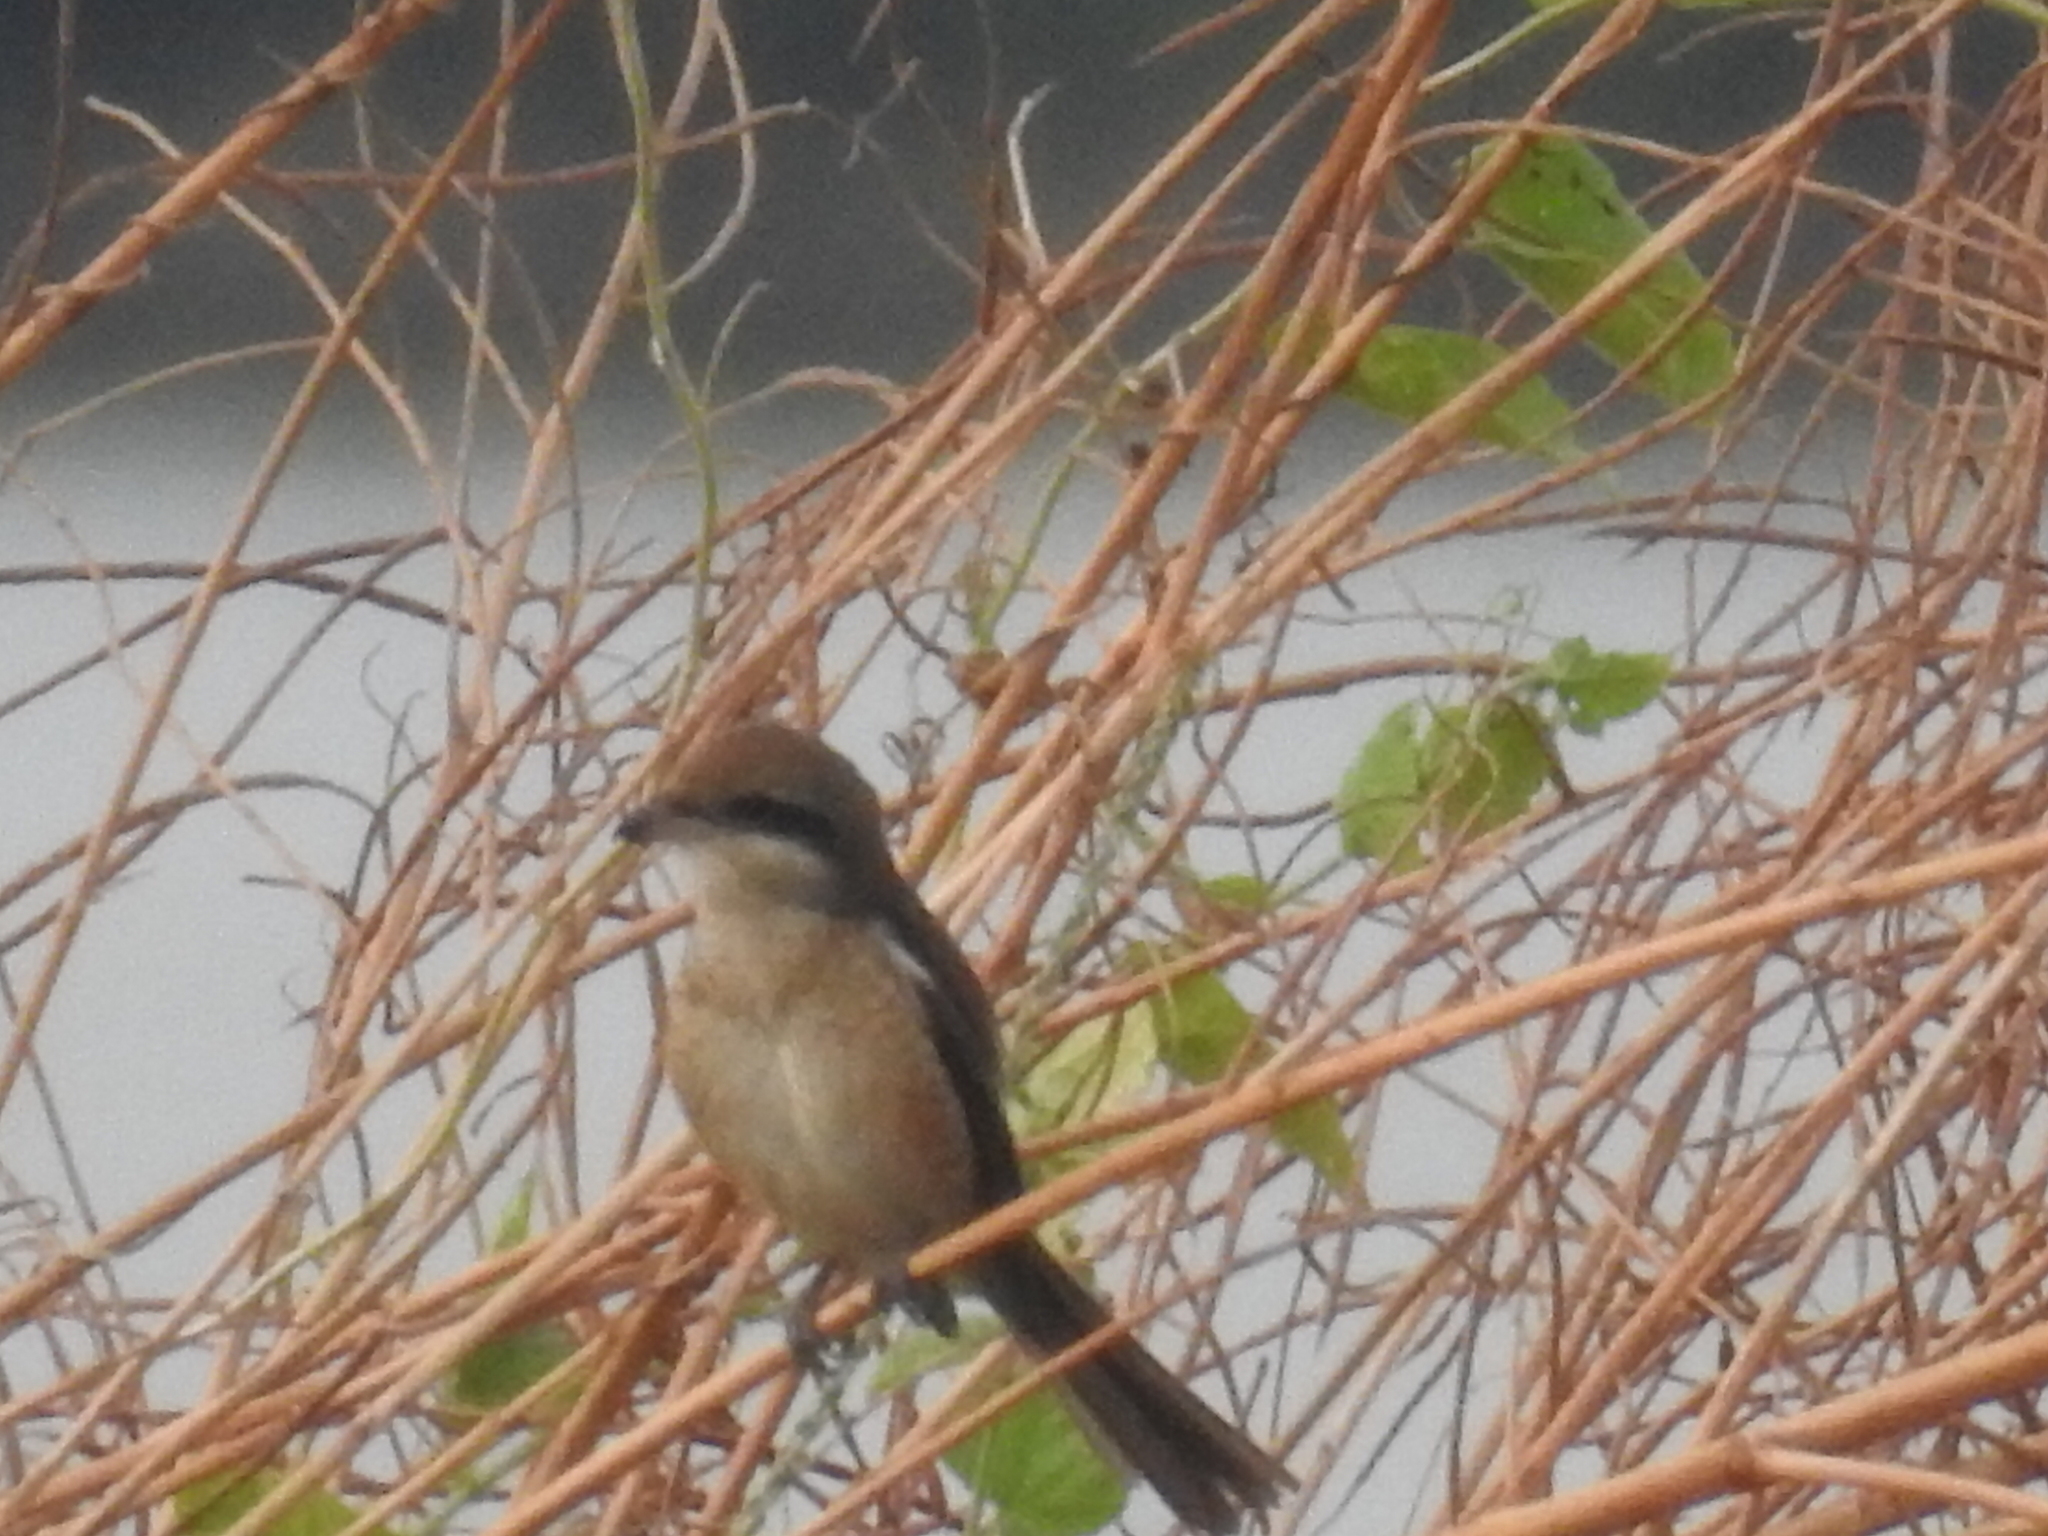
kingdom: Animalia
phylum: Chordata
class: Aves
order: Passeriformes
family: Laniidae
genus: Lanius
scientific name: Lanius cristatus
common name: Brown shrike
